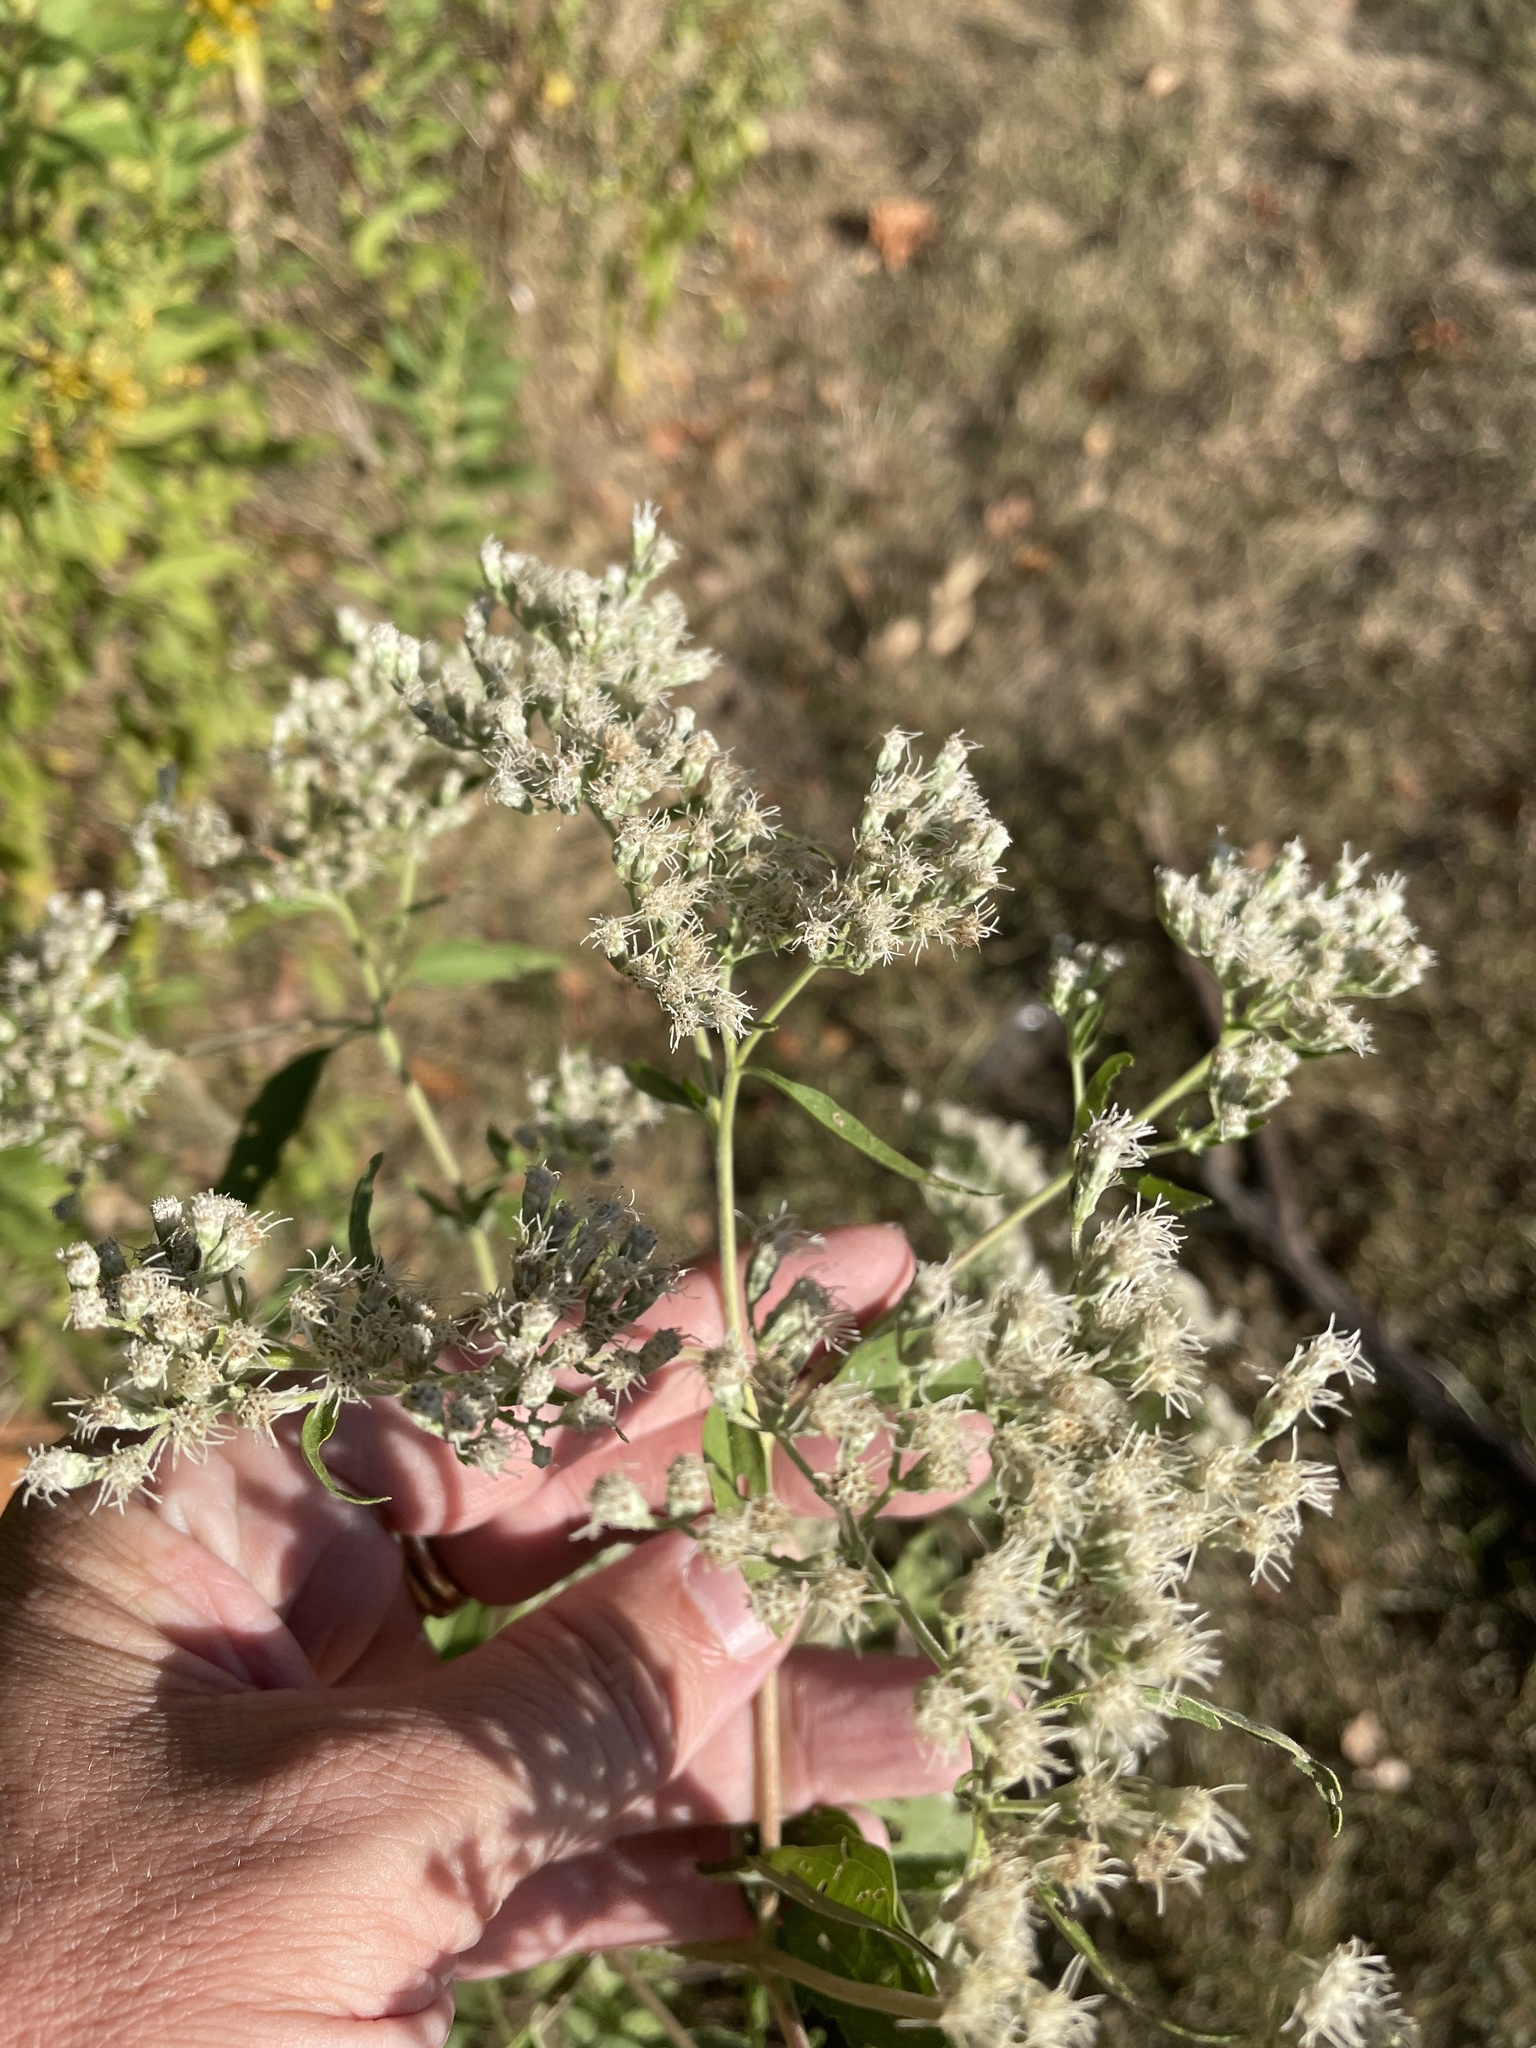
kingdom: Plantae
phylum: Tracheophyta
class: Magnoliopsida
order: Asterales
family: Asteraceae
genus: Eupatorium
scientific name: Eupatorium serotinum
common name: Late boneset
